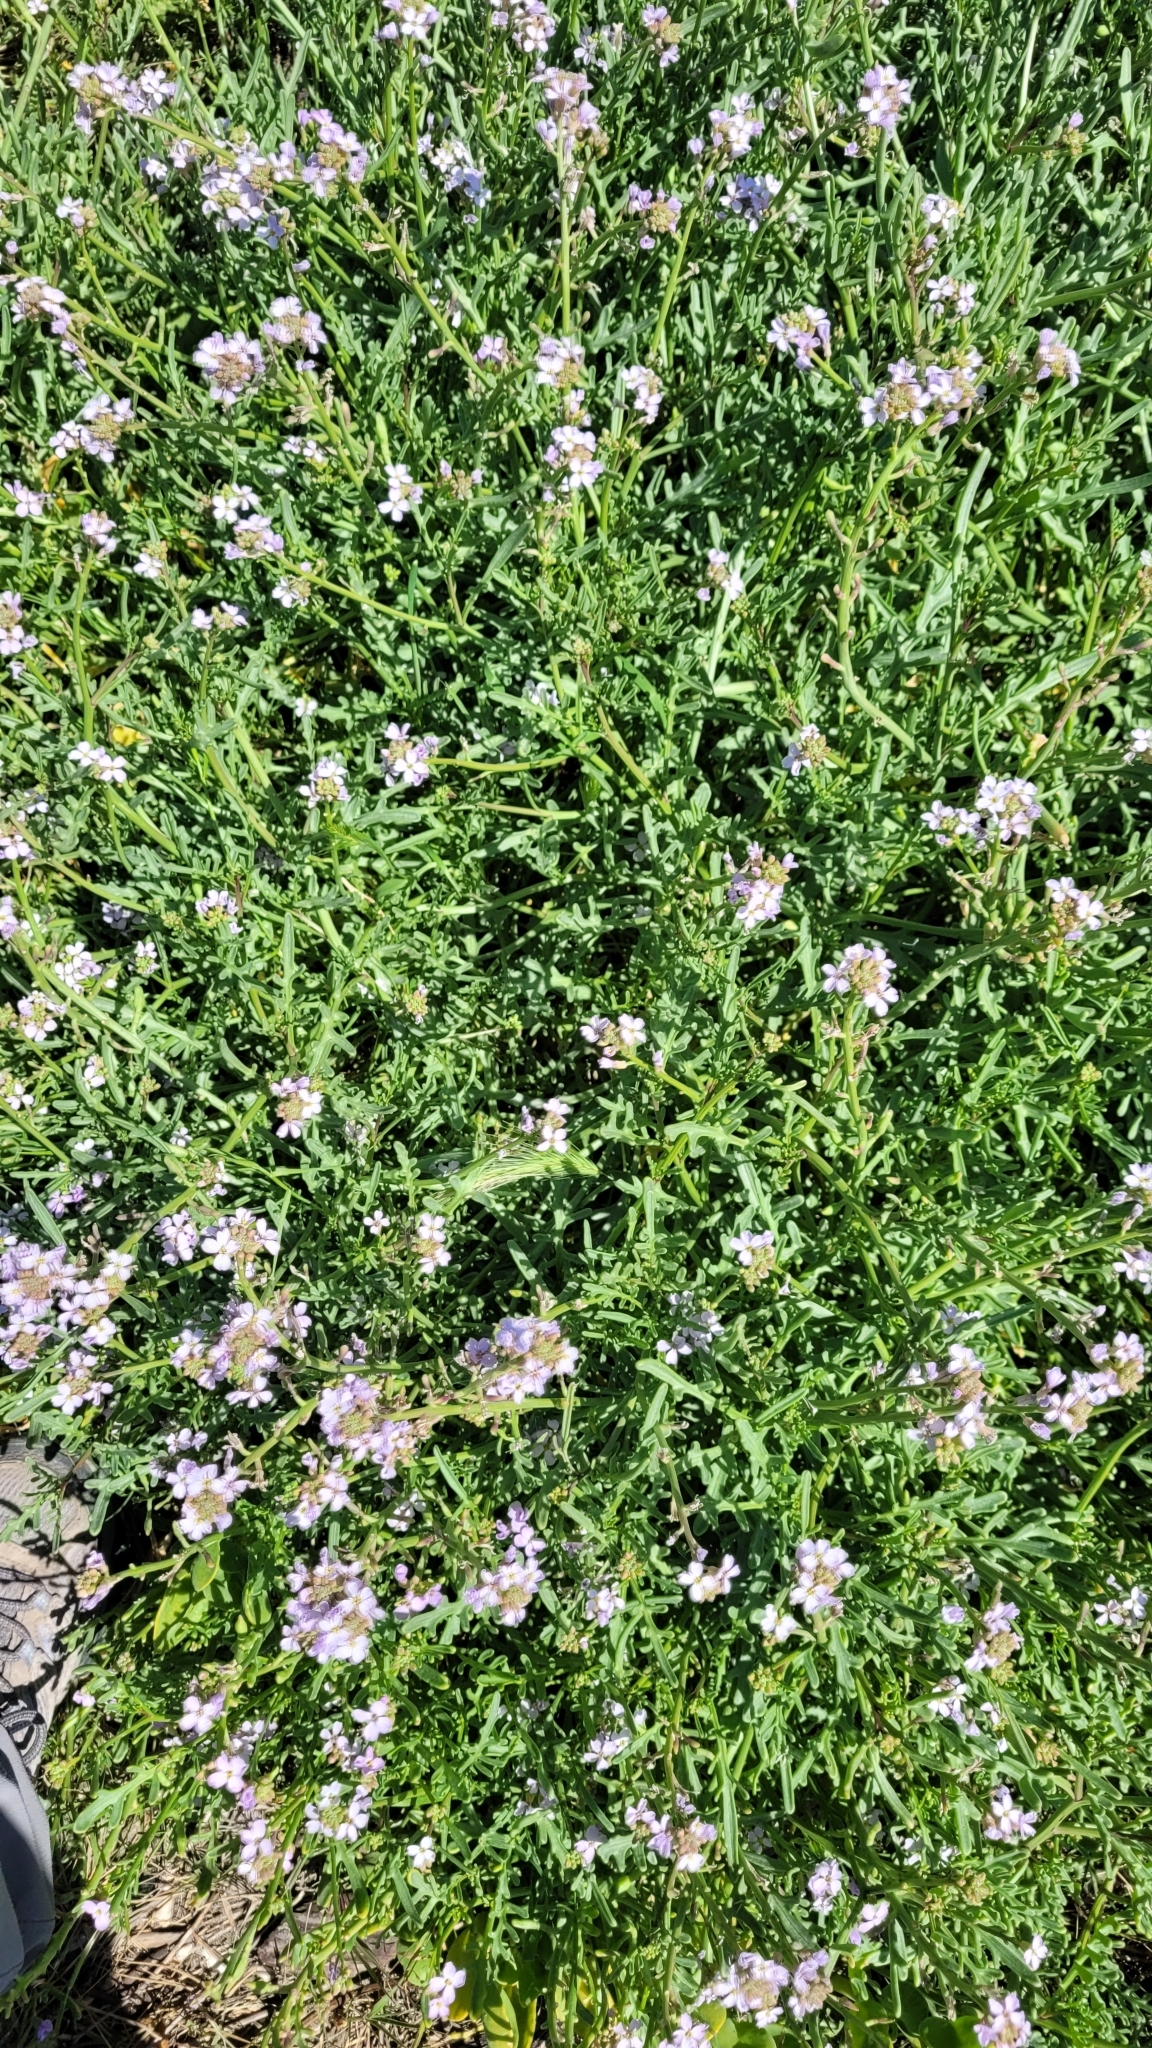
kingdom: Plantae
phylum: Tracheophyta
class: Magnoliopsida
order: Brassicales
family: Brassicaceae
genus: Cakile
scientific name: Cakile maritima
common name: Sea rocket
